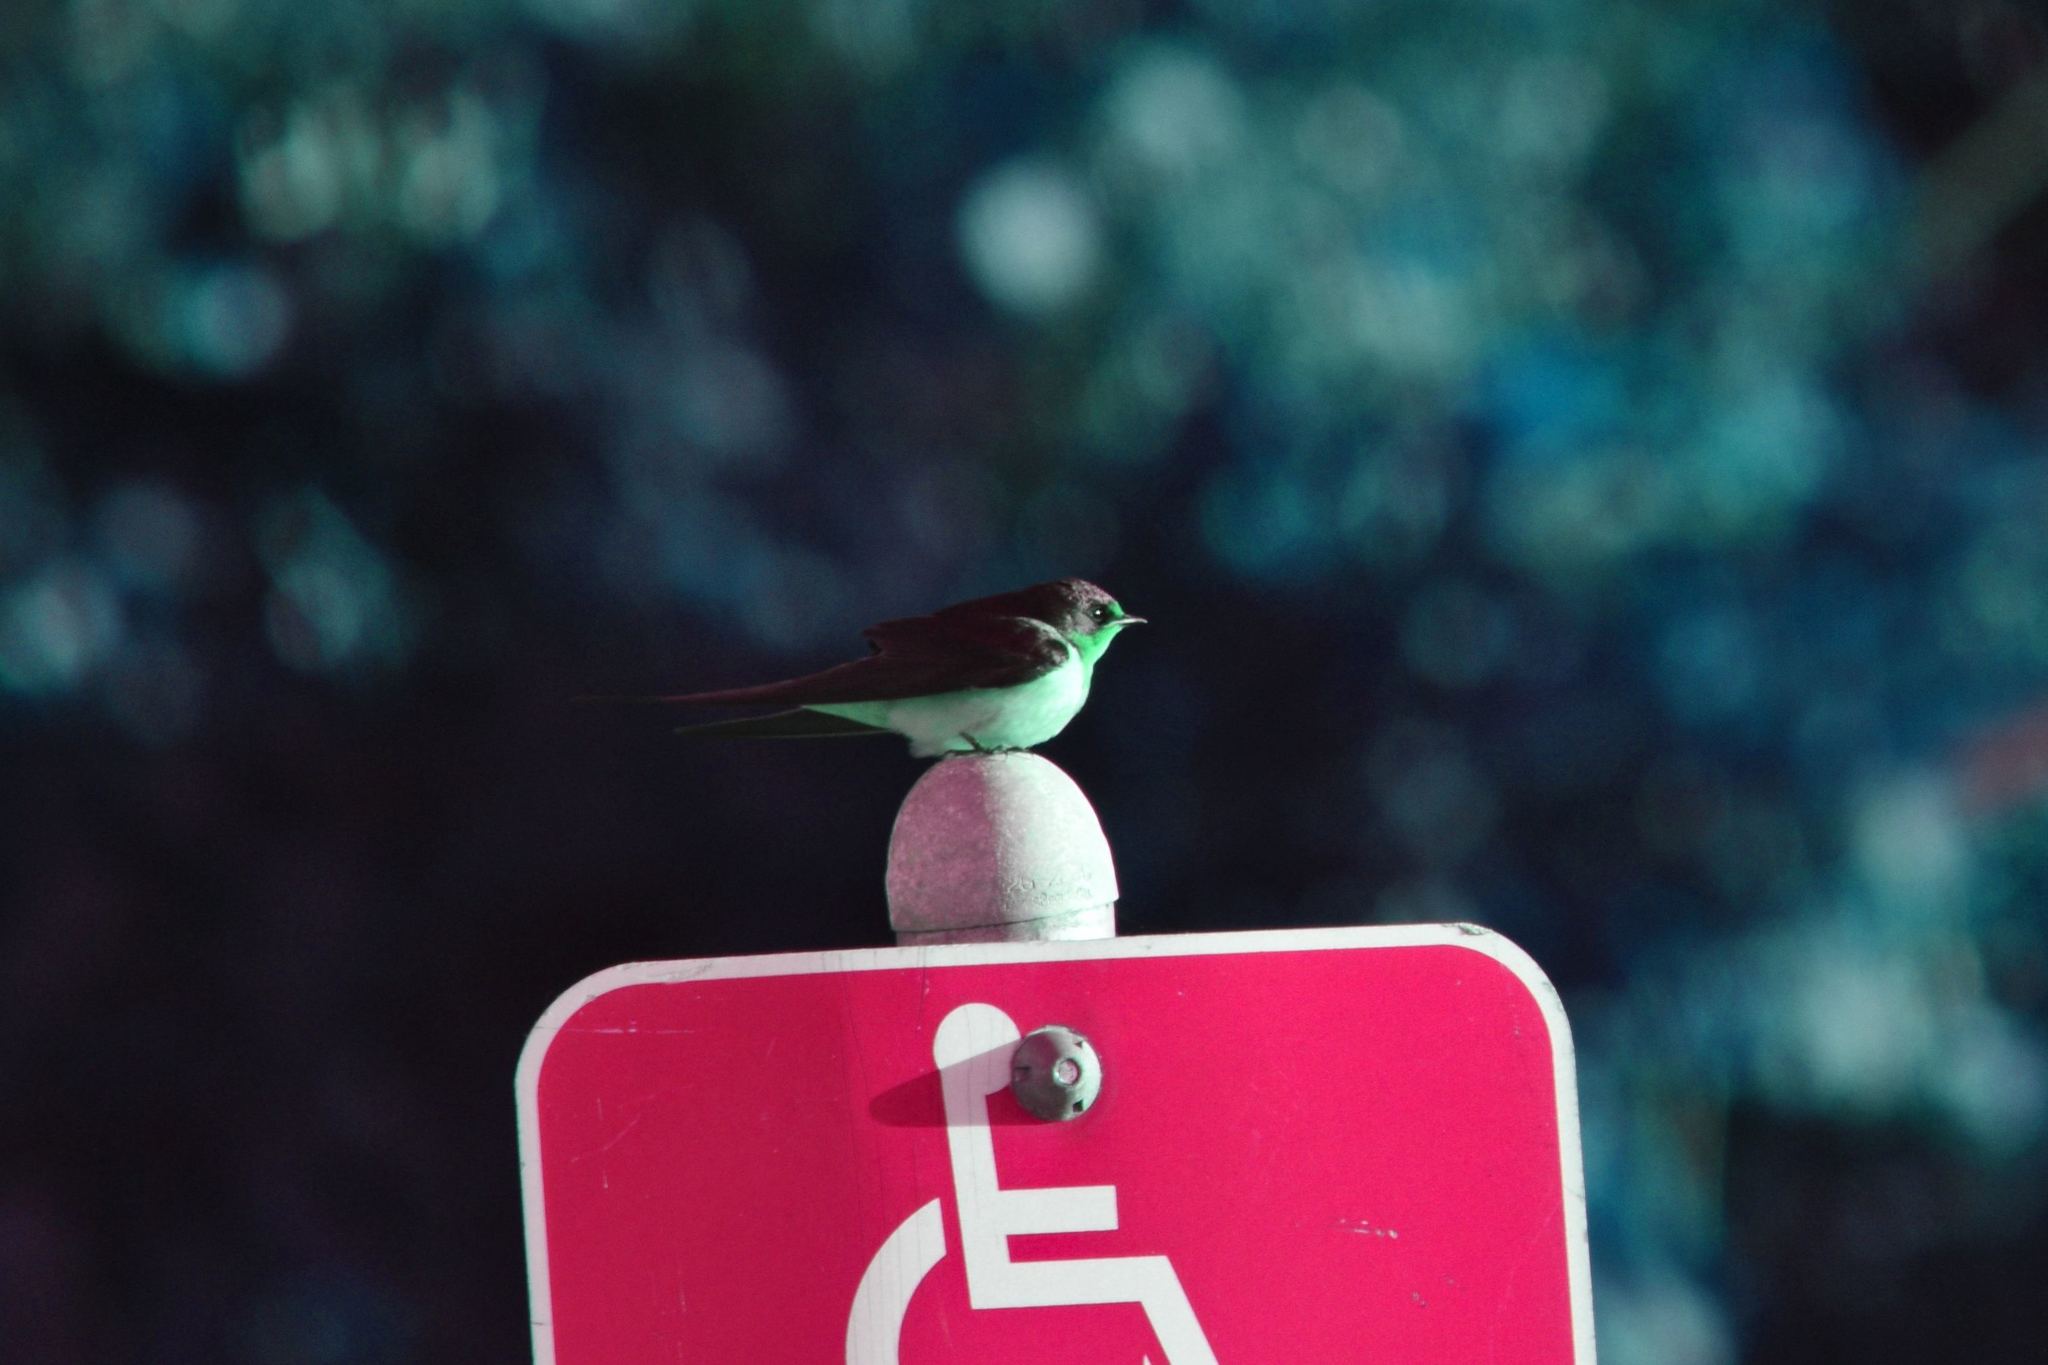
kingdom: Animalia
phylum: Chordata
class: Aves
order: Passeriformes
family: Hirundinidae
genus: Hirundo
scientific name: Hirundo rustica
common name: Barn swallow
